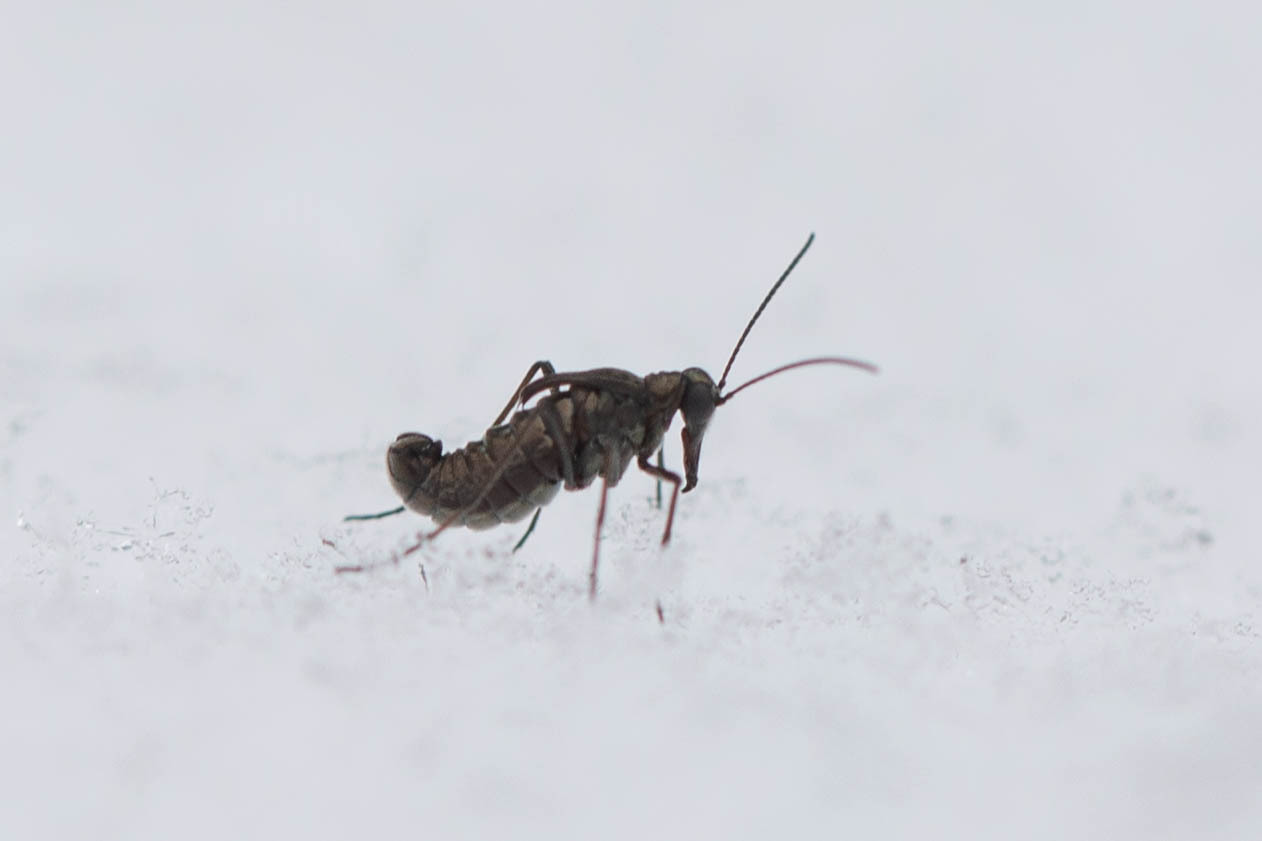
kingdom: Animalia
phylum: Arthropoda
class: Insecta
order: Mecoptera
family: Boreidae
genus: Boreus
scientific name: Boreus californicus
